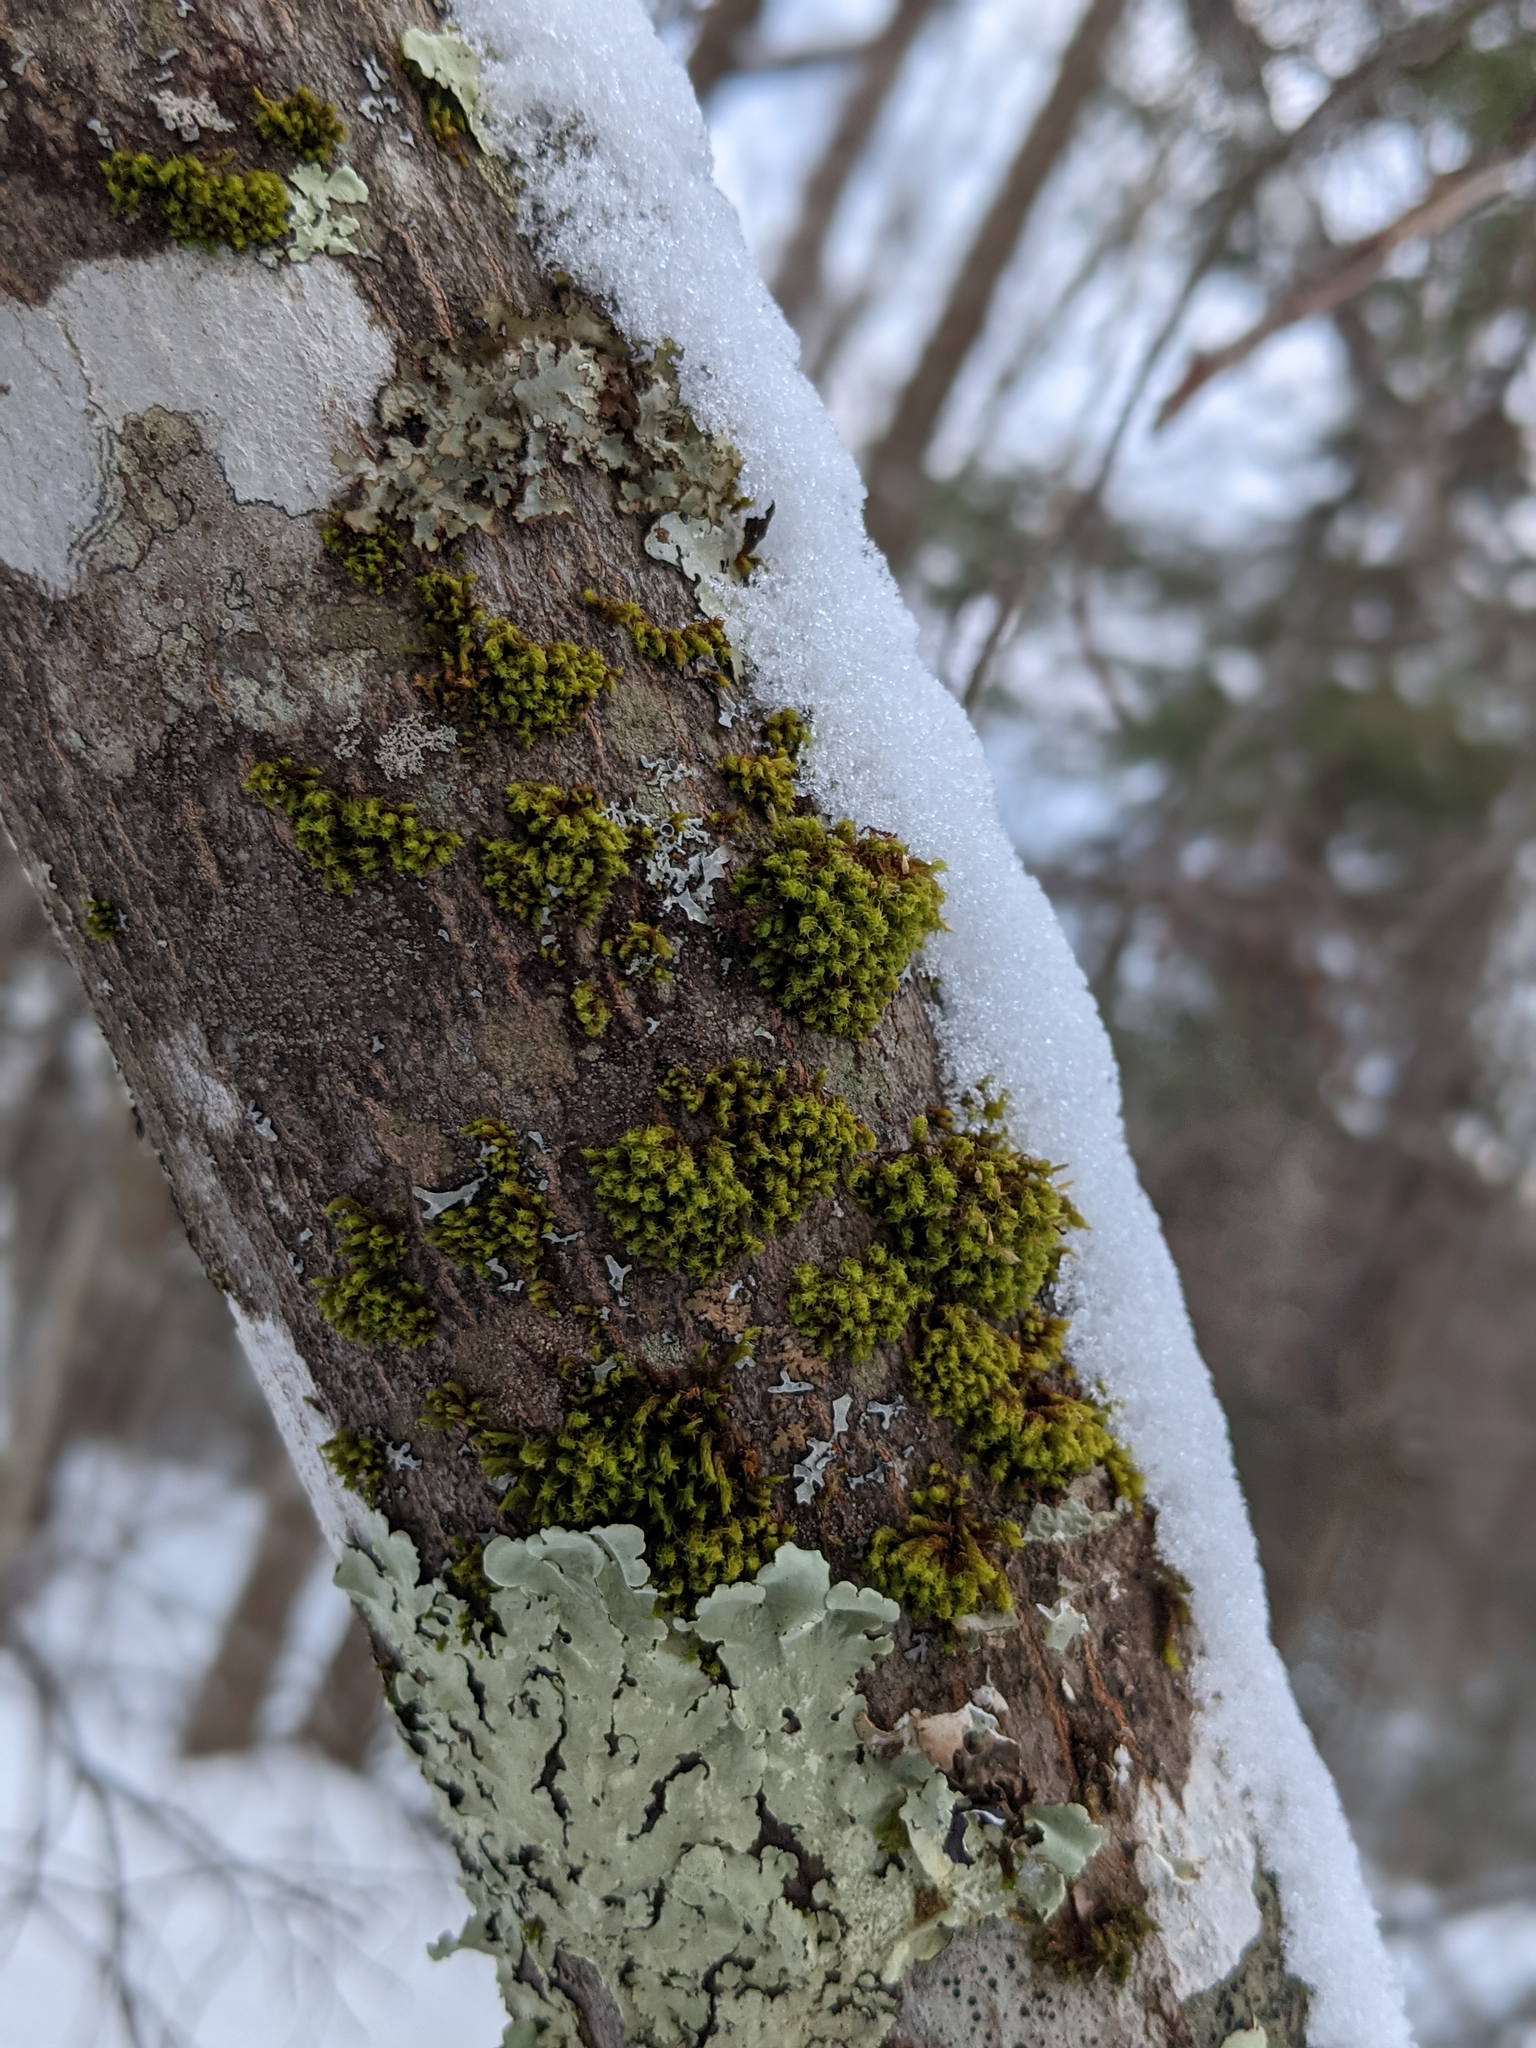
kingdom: Plantae
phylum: Bryophyta
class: Bryopsida
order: Orthotrichales
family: Orthotrichaceae
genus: Ulota
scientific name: Ulota crispa
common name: Crisped pincushion moss
